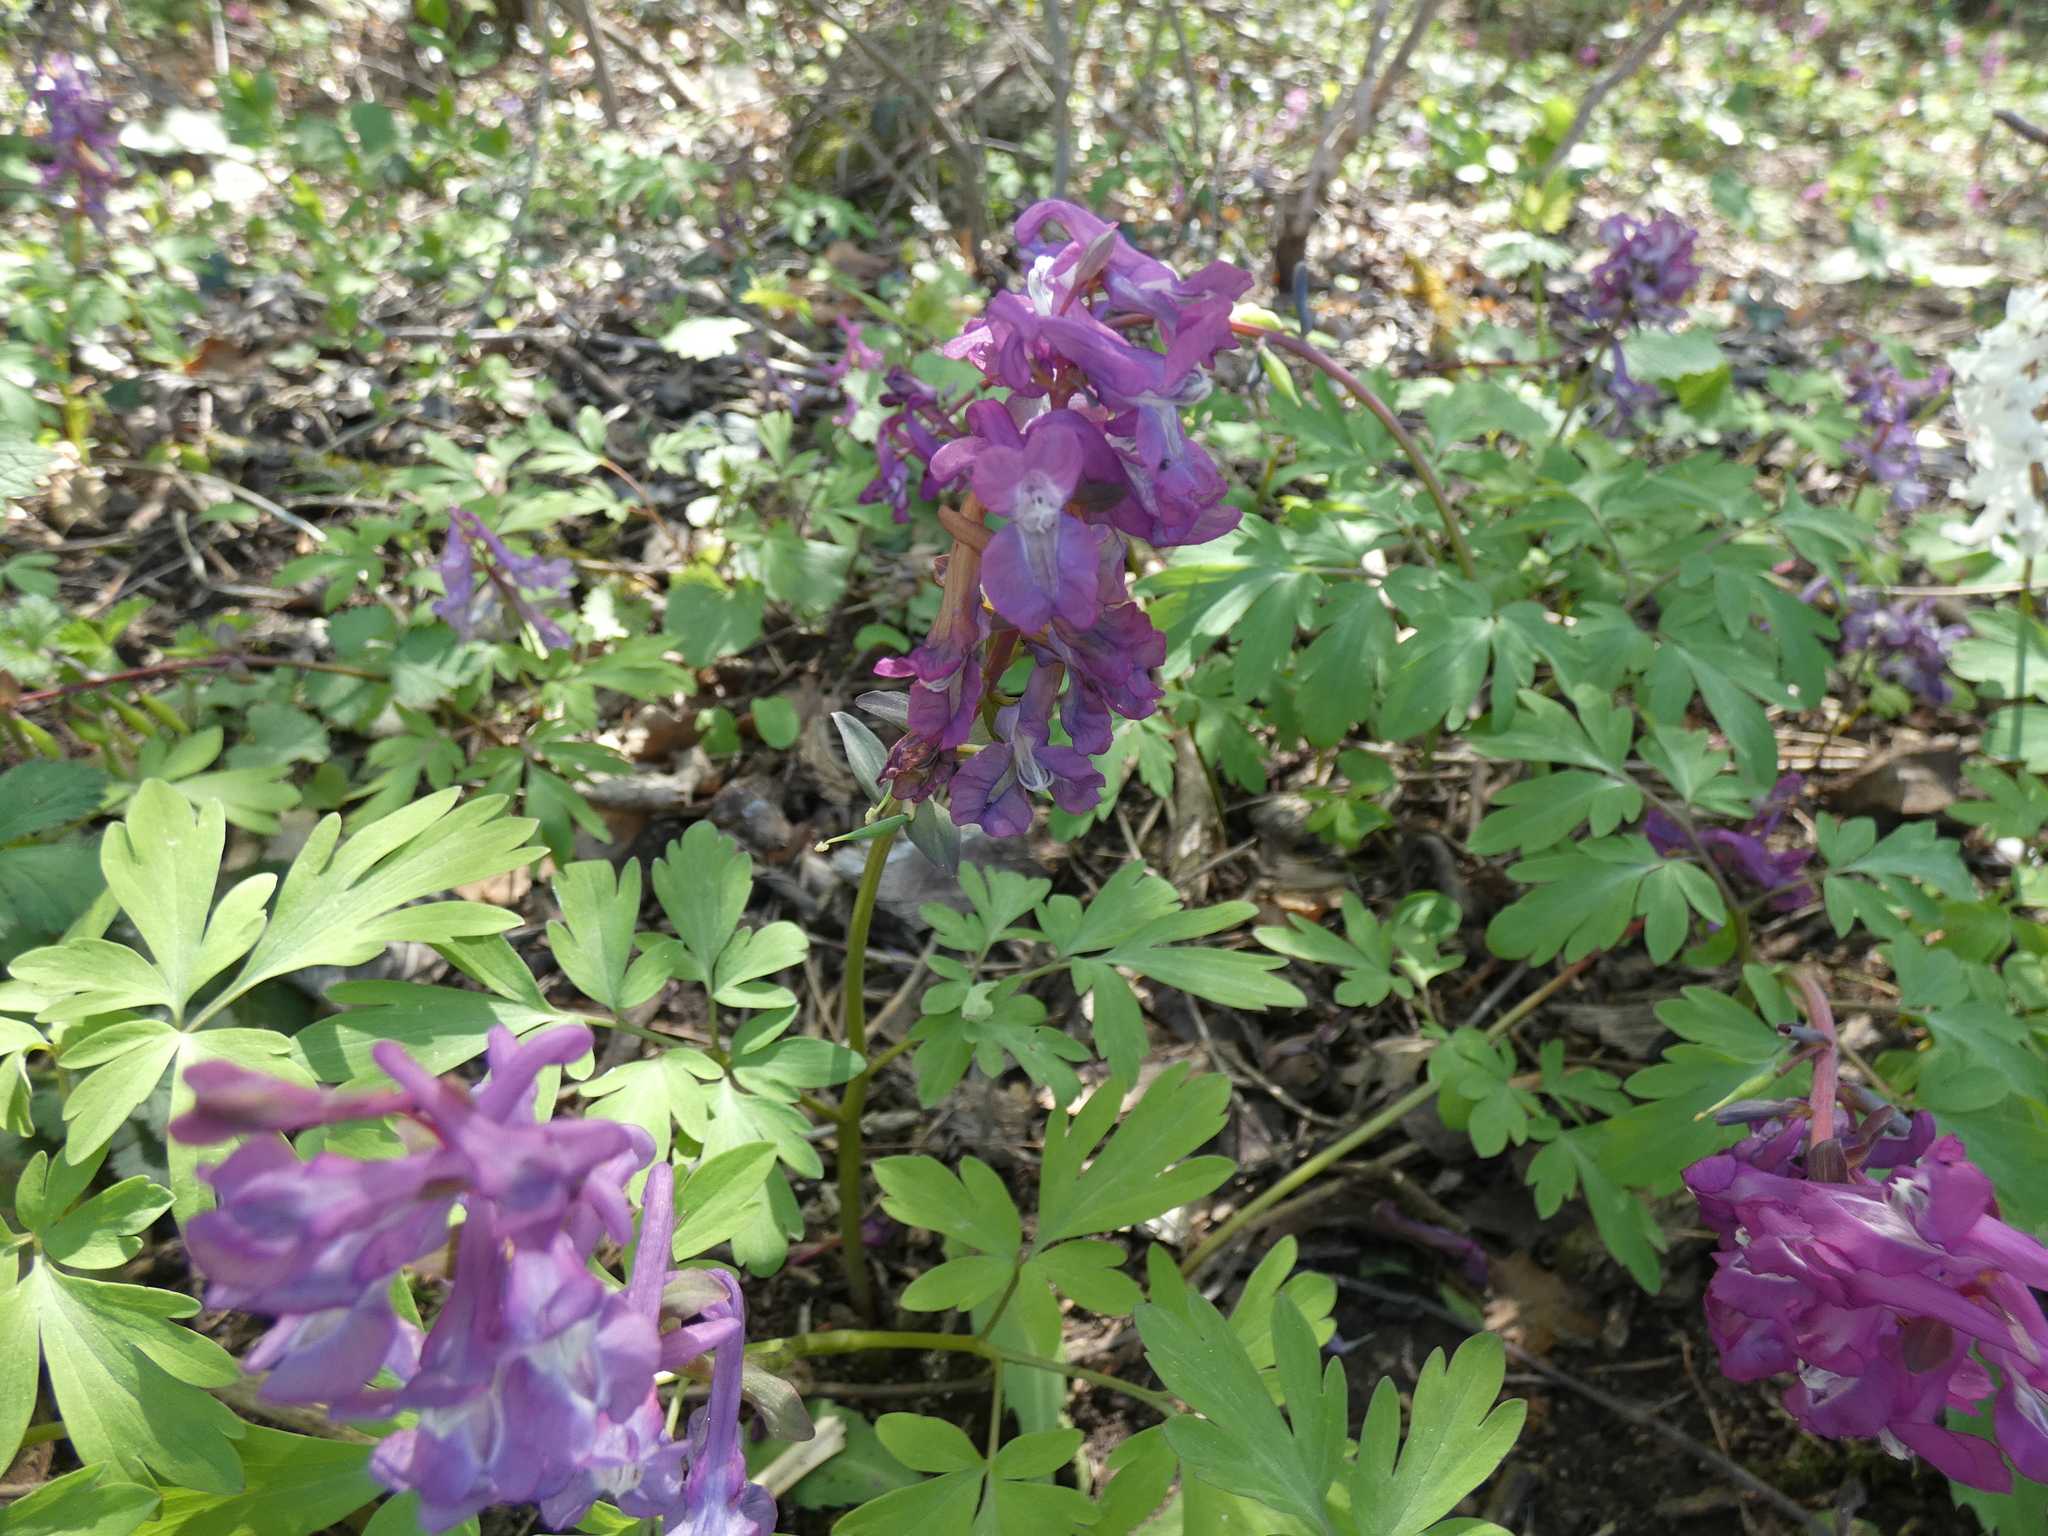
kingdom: Plantae
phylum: Tracheophyta
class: Magnoliopsida
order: Ranunculales
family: Papaveraceae
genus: Corydalis
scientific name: Corydalis cava
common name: Hollowroot
